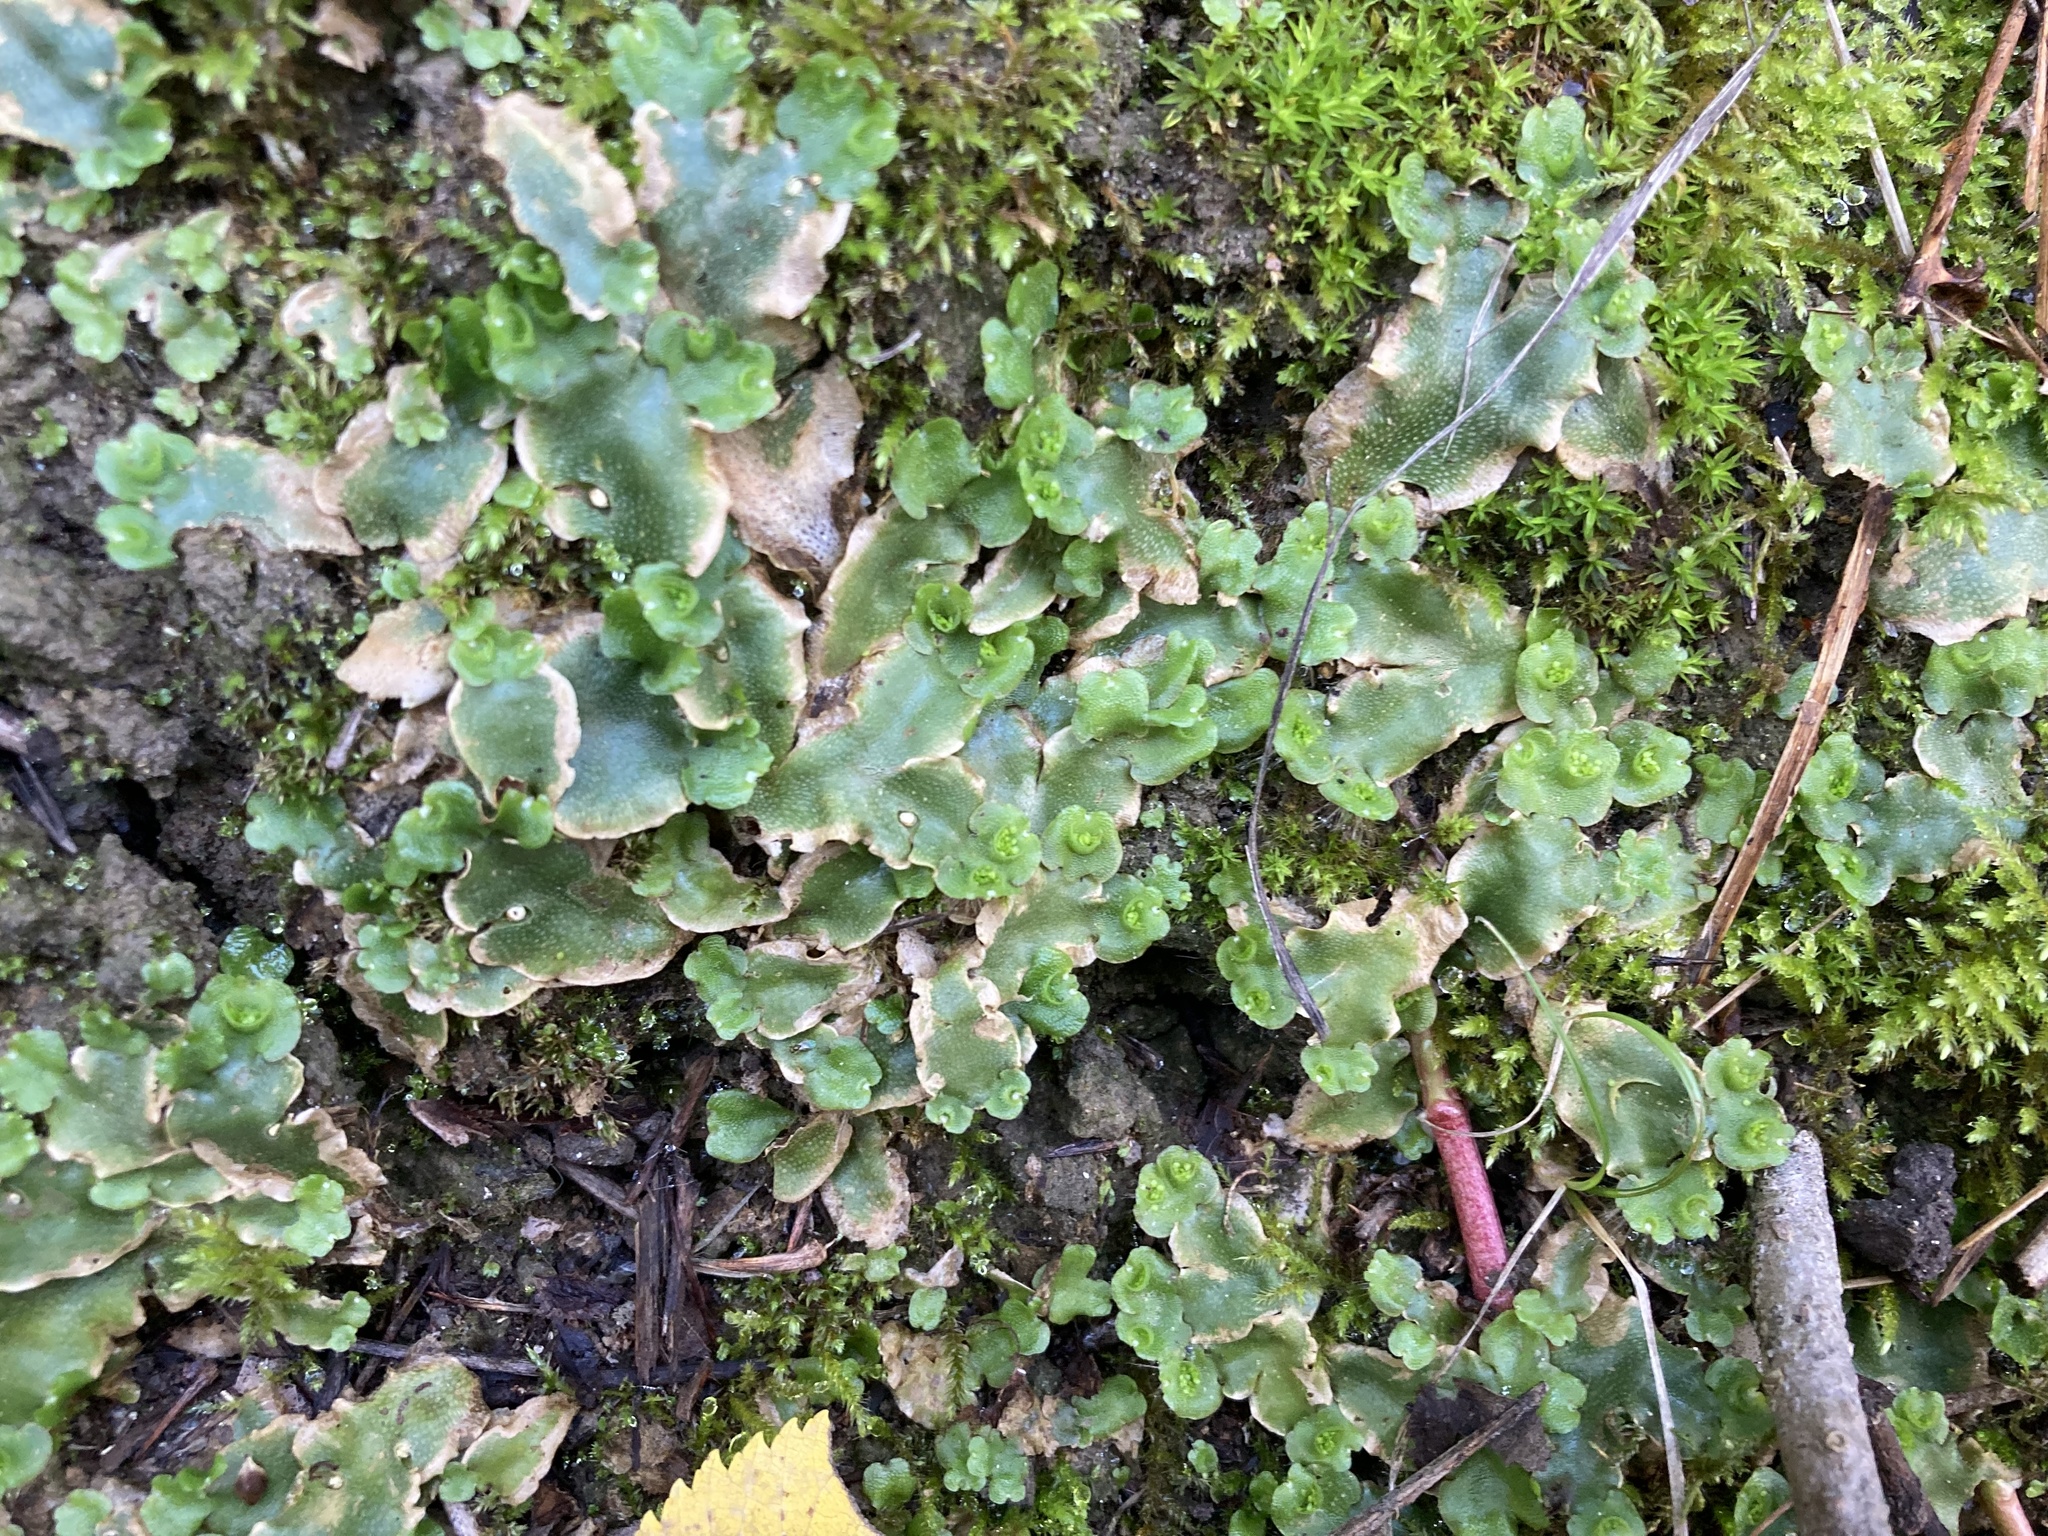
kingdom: Plantae
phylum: Marchantiophyta
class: Marchantiopsida
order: Lunulariales
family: Lunulariaceae
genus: Lunularia
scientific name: Lunularia cruciata
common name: Crescent-cup liverwort
